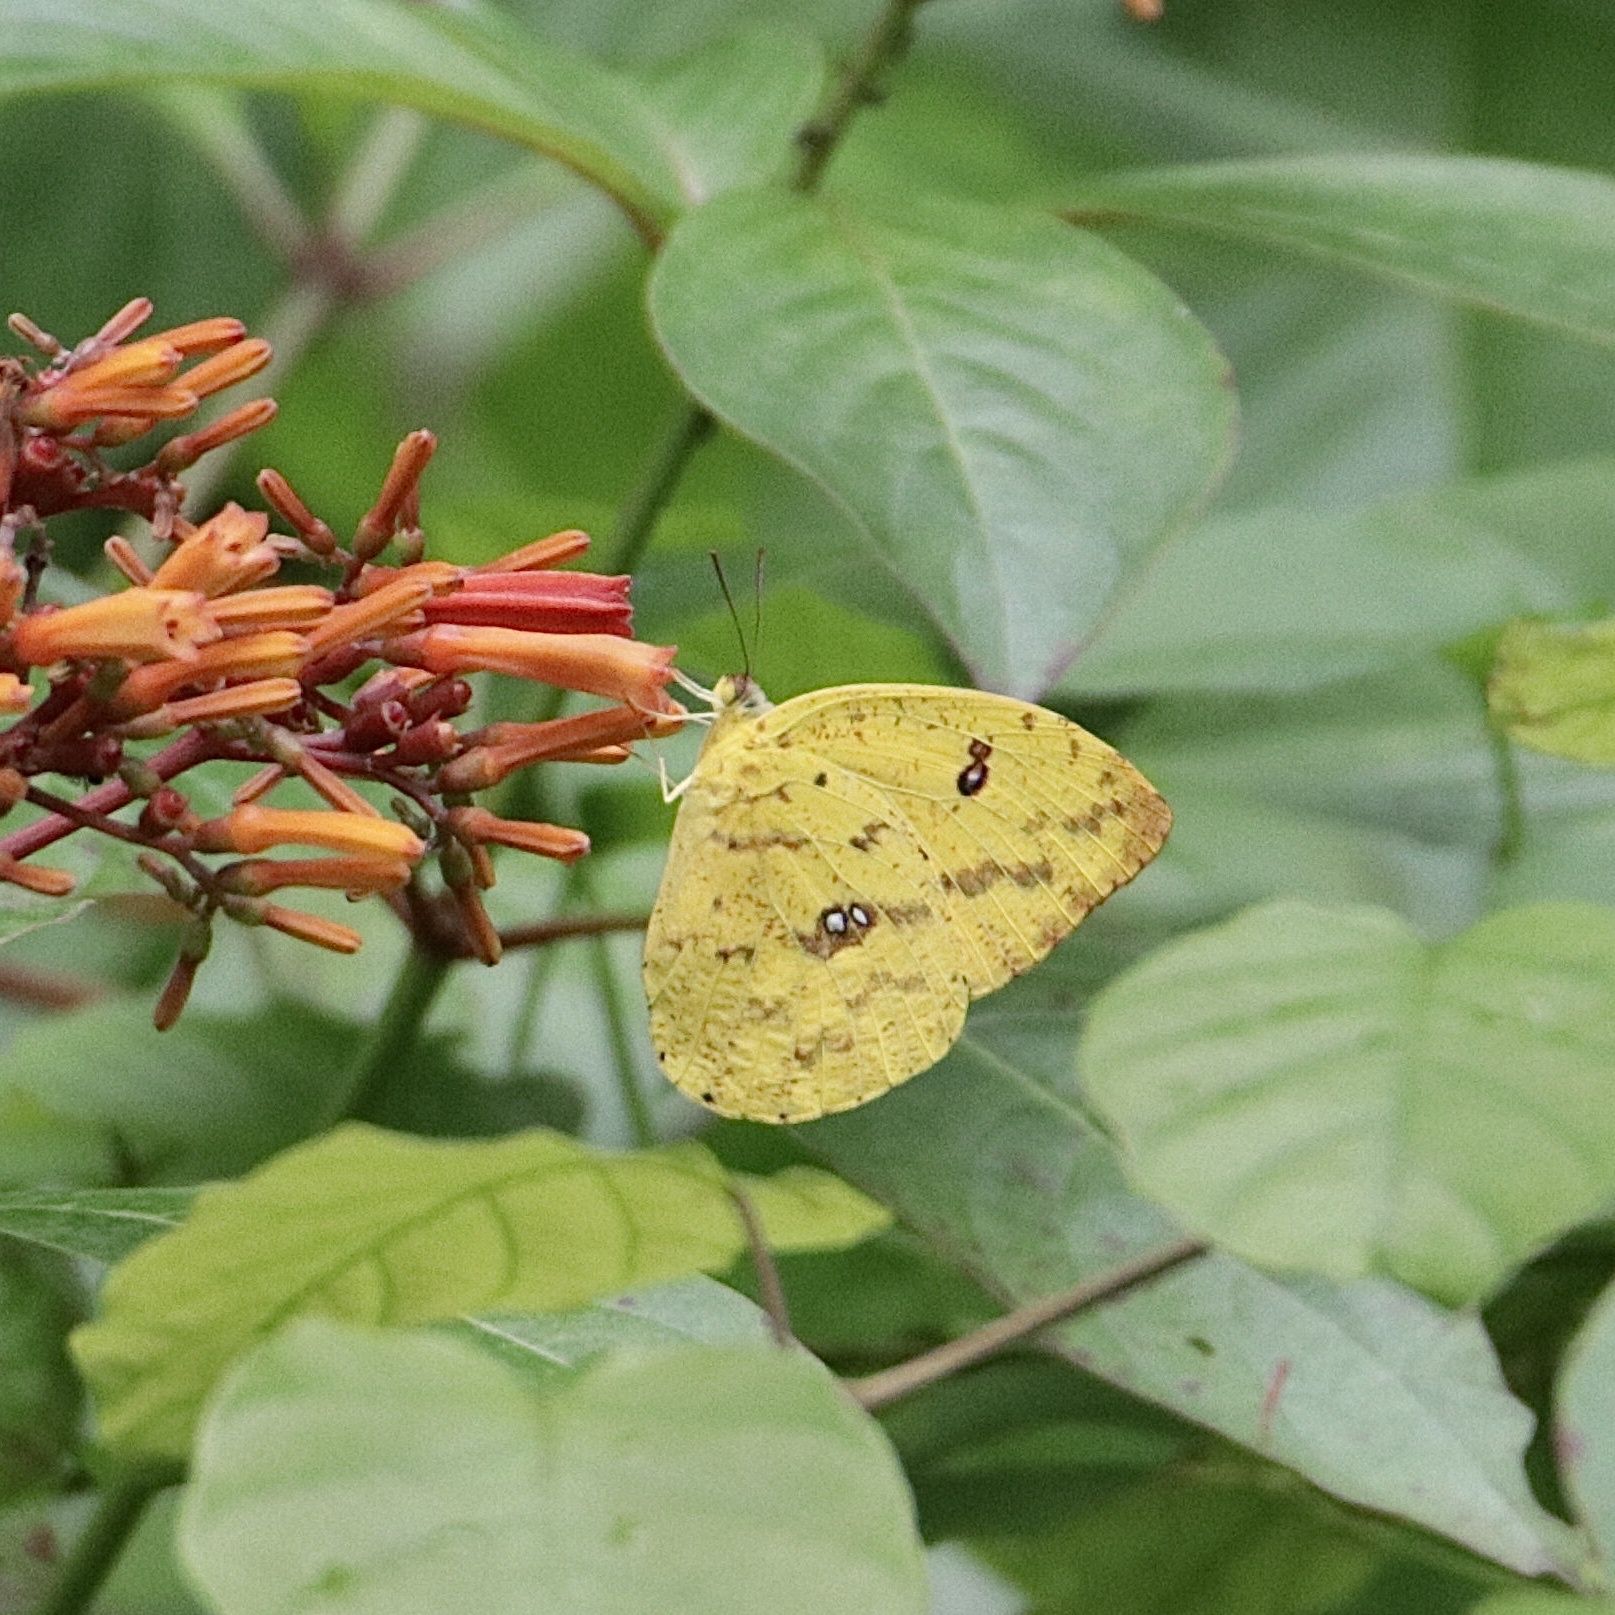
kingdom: Animalia
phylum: Arthropoda
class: Insecta
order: Lepidoptera
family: Pieridae
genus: Phoebis
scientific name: Phoebis argante
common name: Apricot sulphur
